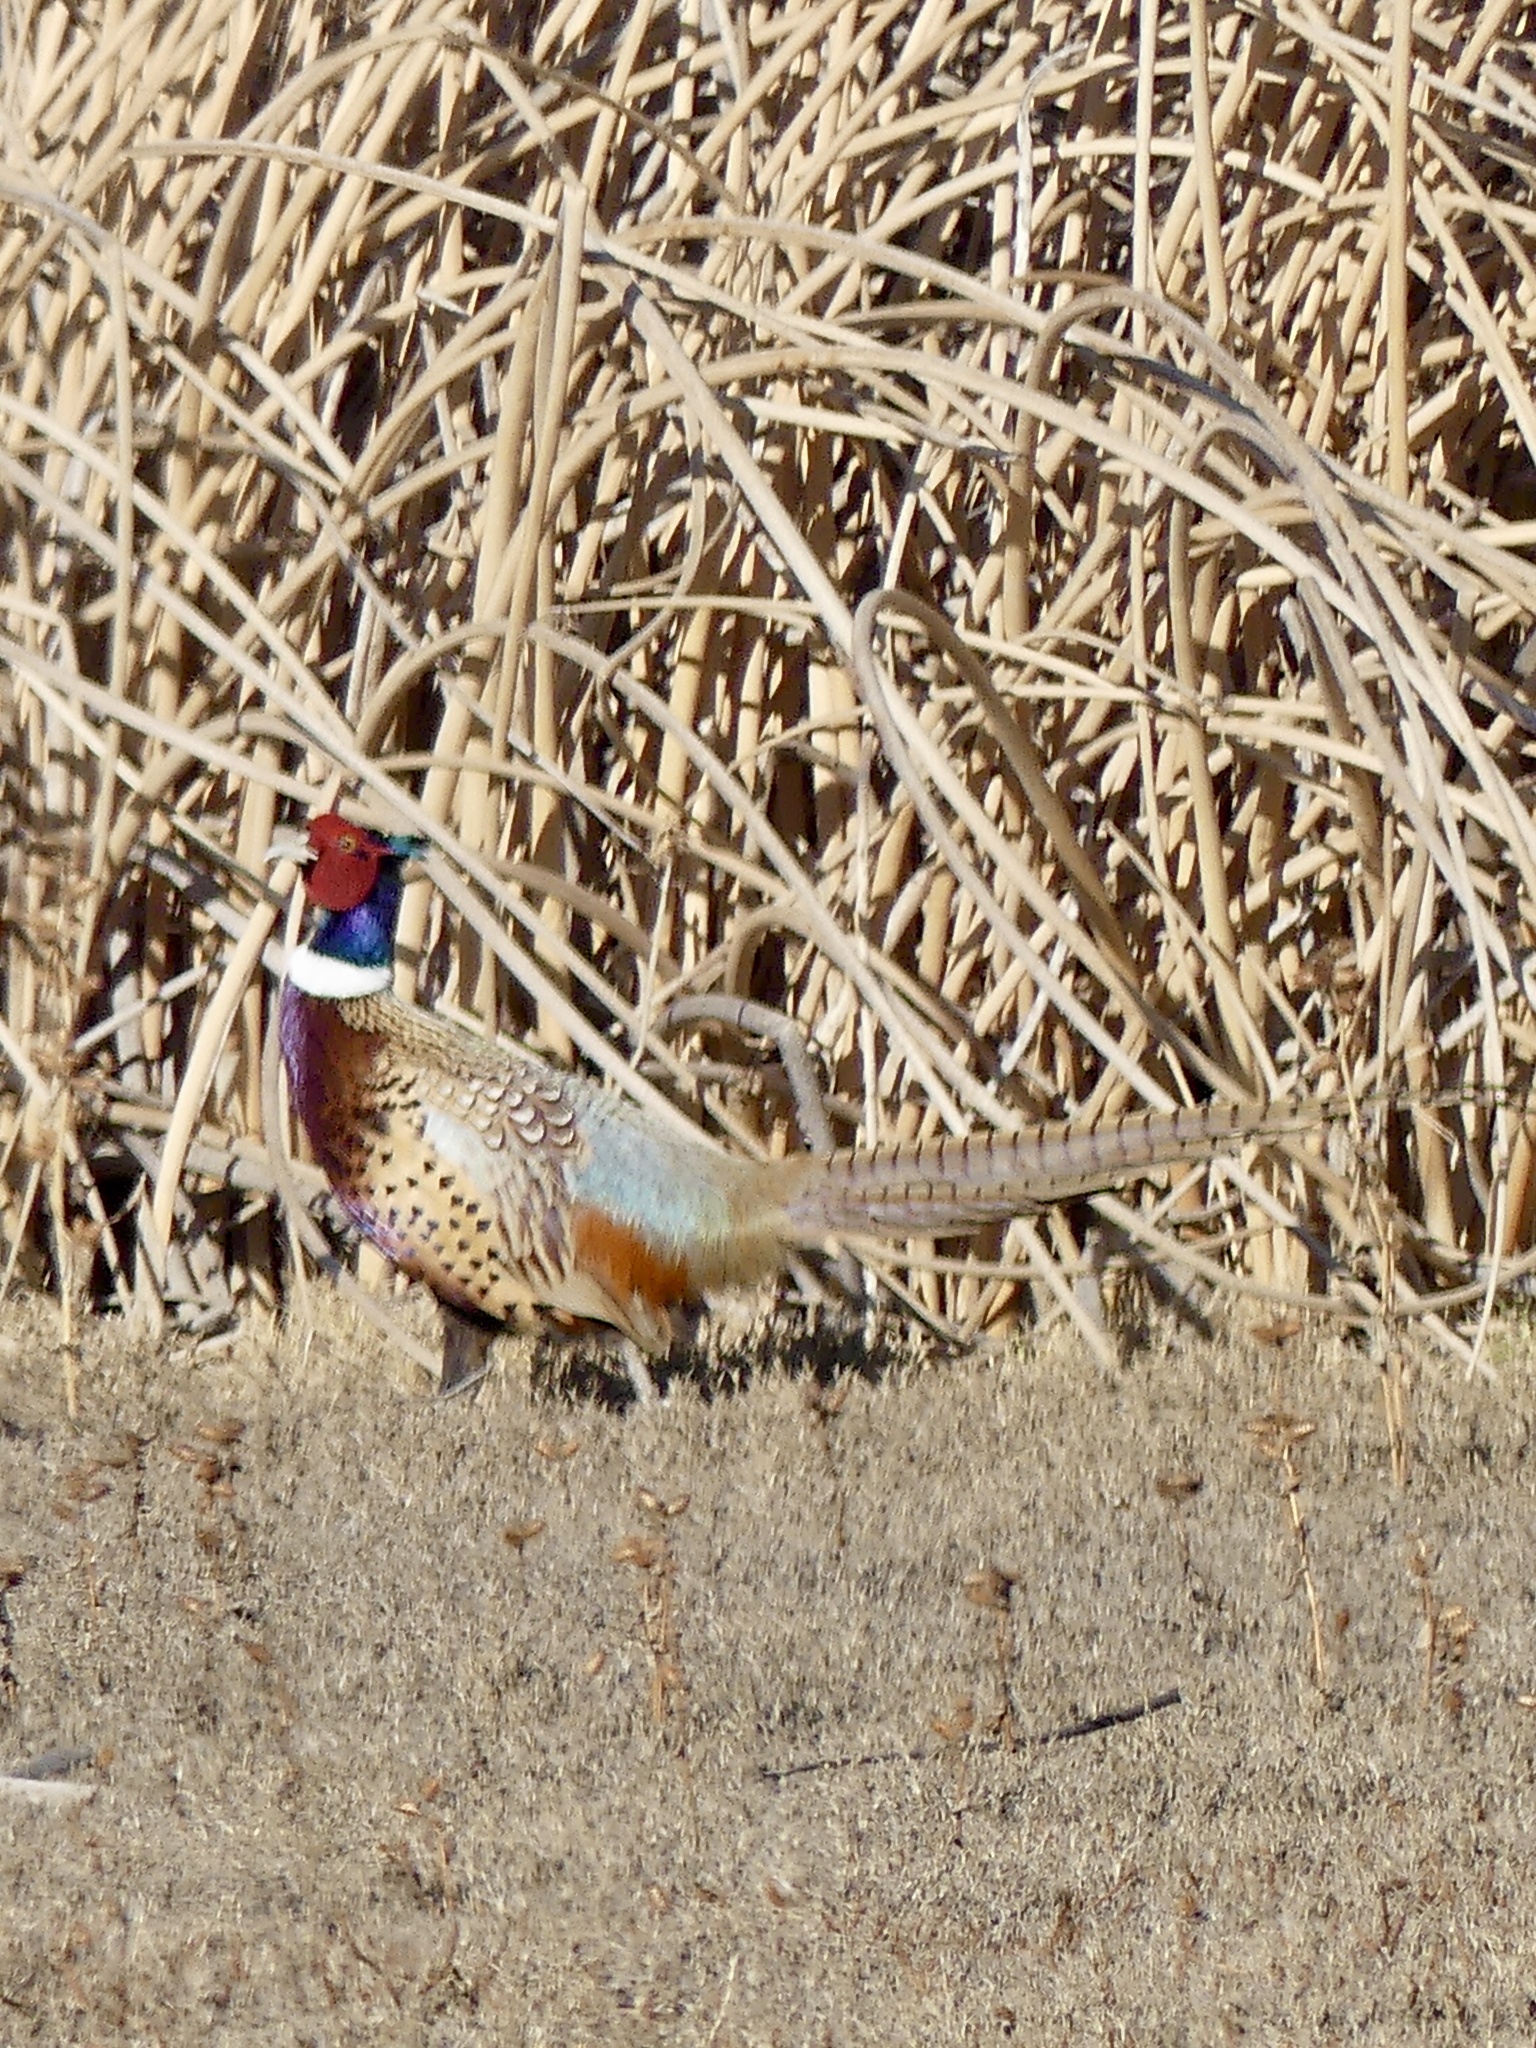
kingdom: Animalia
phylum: Chordata
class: Aves
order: Galliformes
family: Phasianidae
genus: Phasianus
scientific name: Phasianus colchicus
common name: Common pheasant
